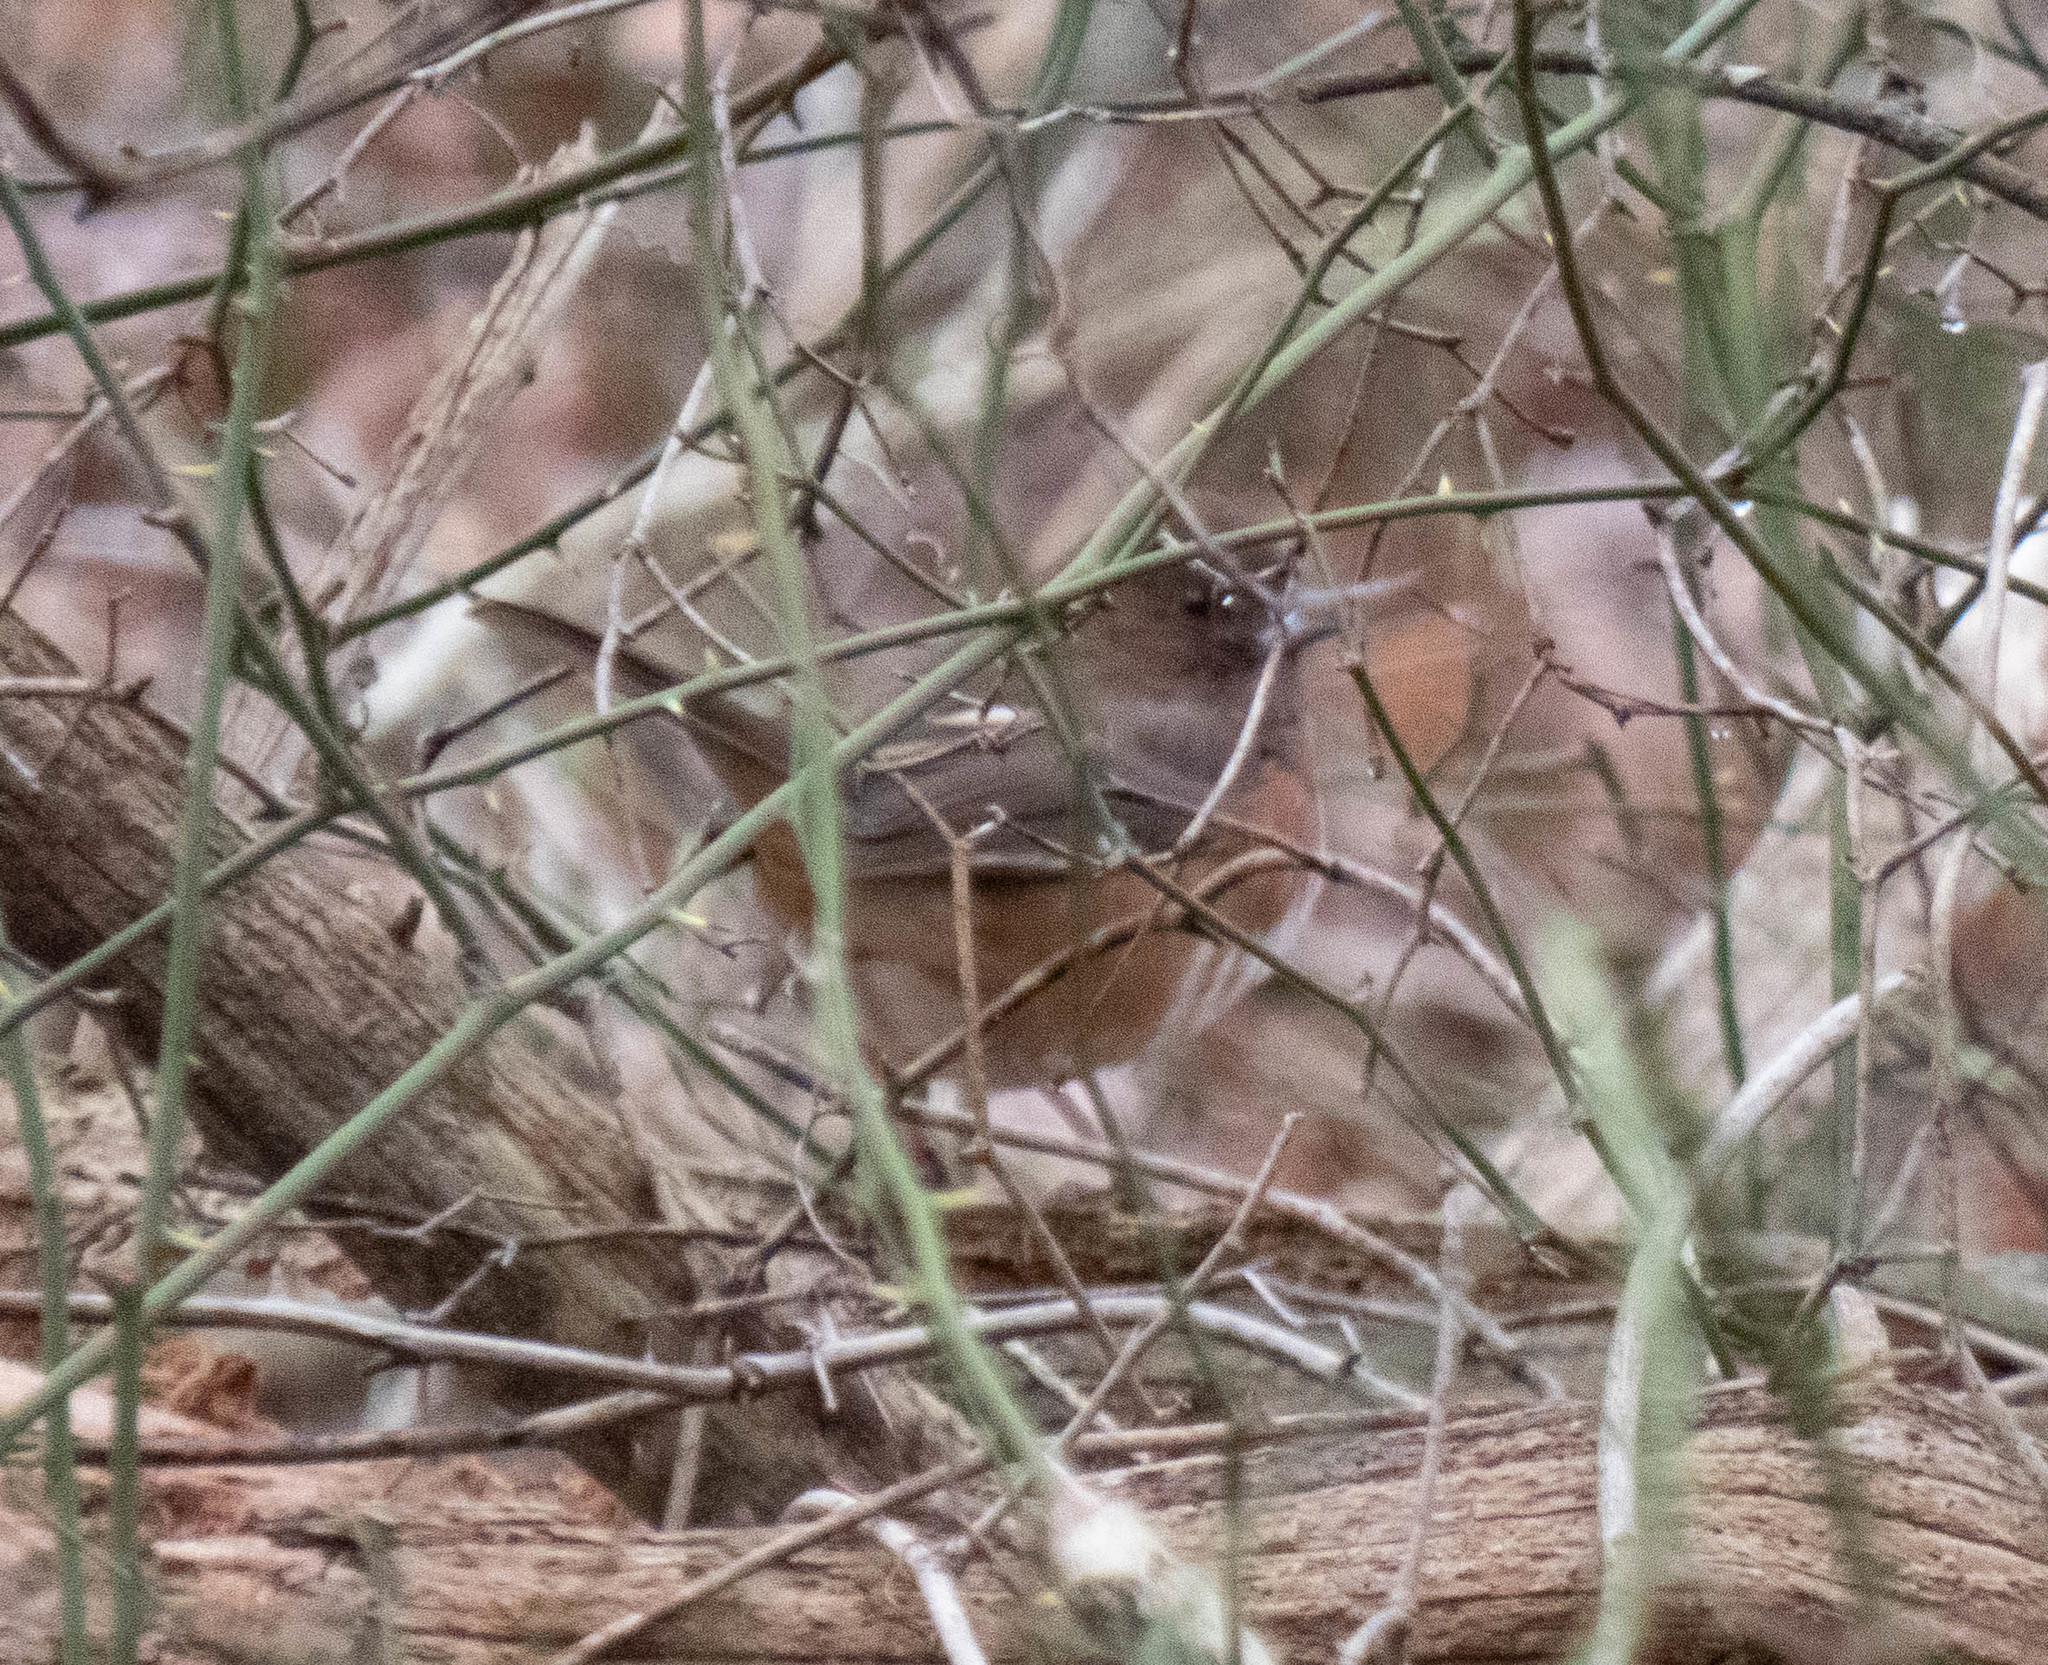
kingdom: Animalia
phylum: Chordata
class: Aves
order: Passeriformes
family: Passerellidae
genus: Pipilo
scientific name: Pipilo erythrophthalmus
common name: Eastern towhee
